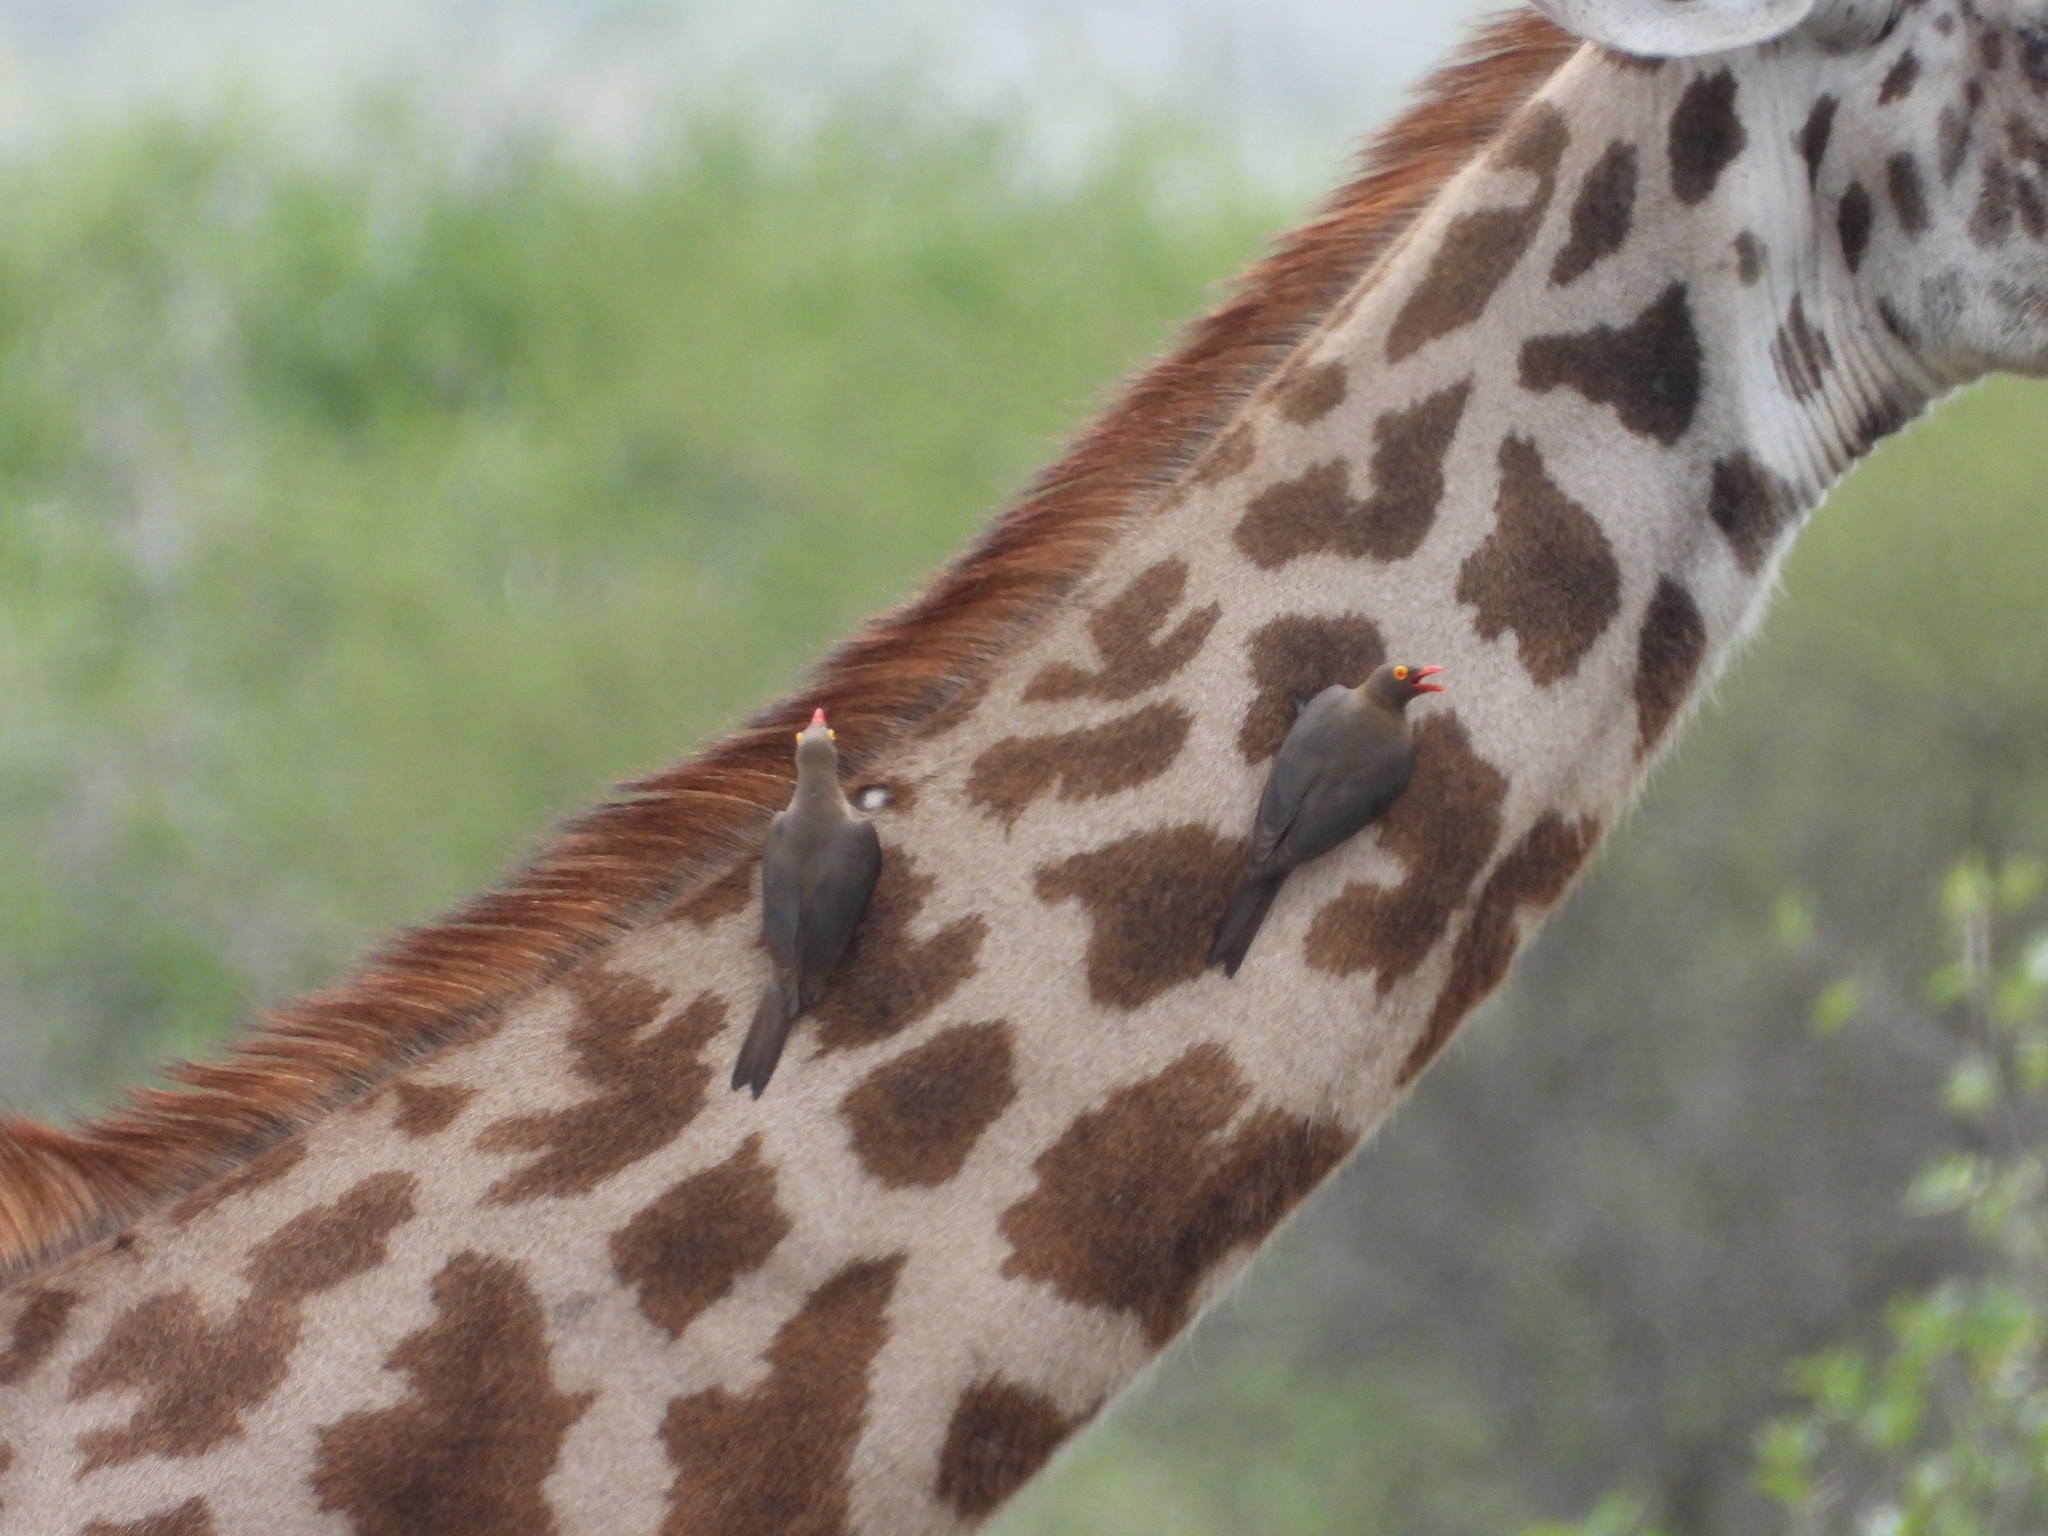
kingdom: Animalia
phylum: Chordata
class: Aves
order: Passeriformes
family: Buphagidae
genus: Buphagus
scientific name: Buphagus erythrorhynchus
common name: Red-billed oxpecker
